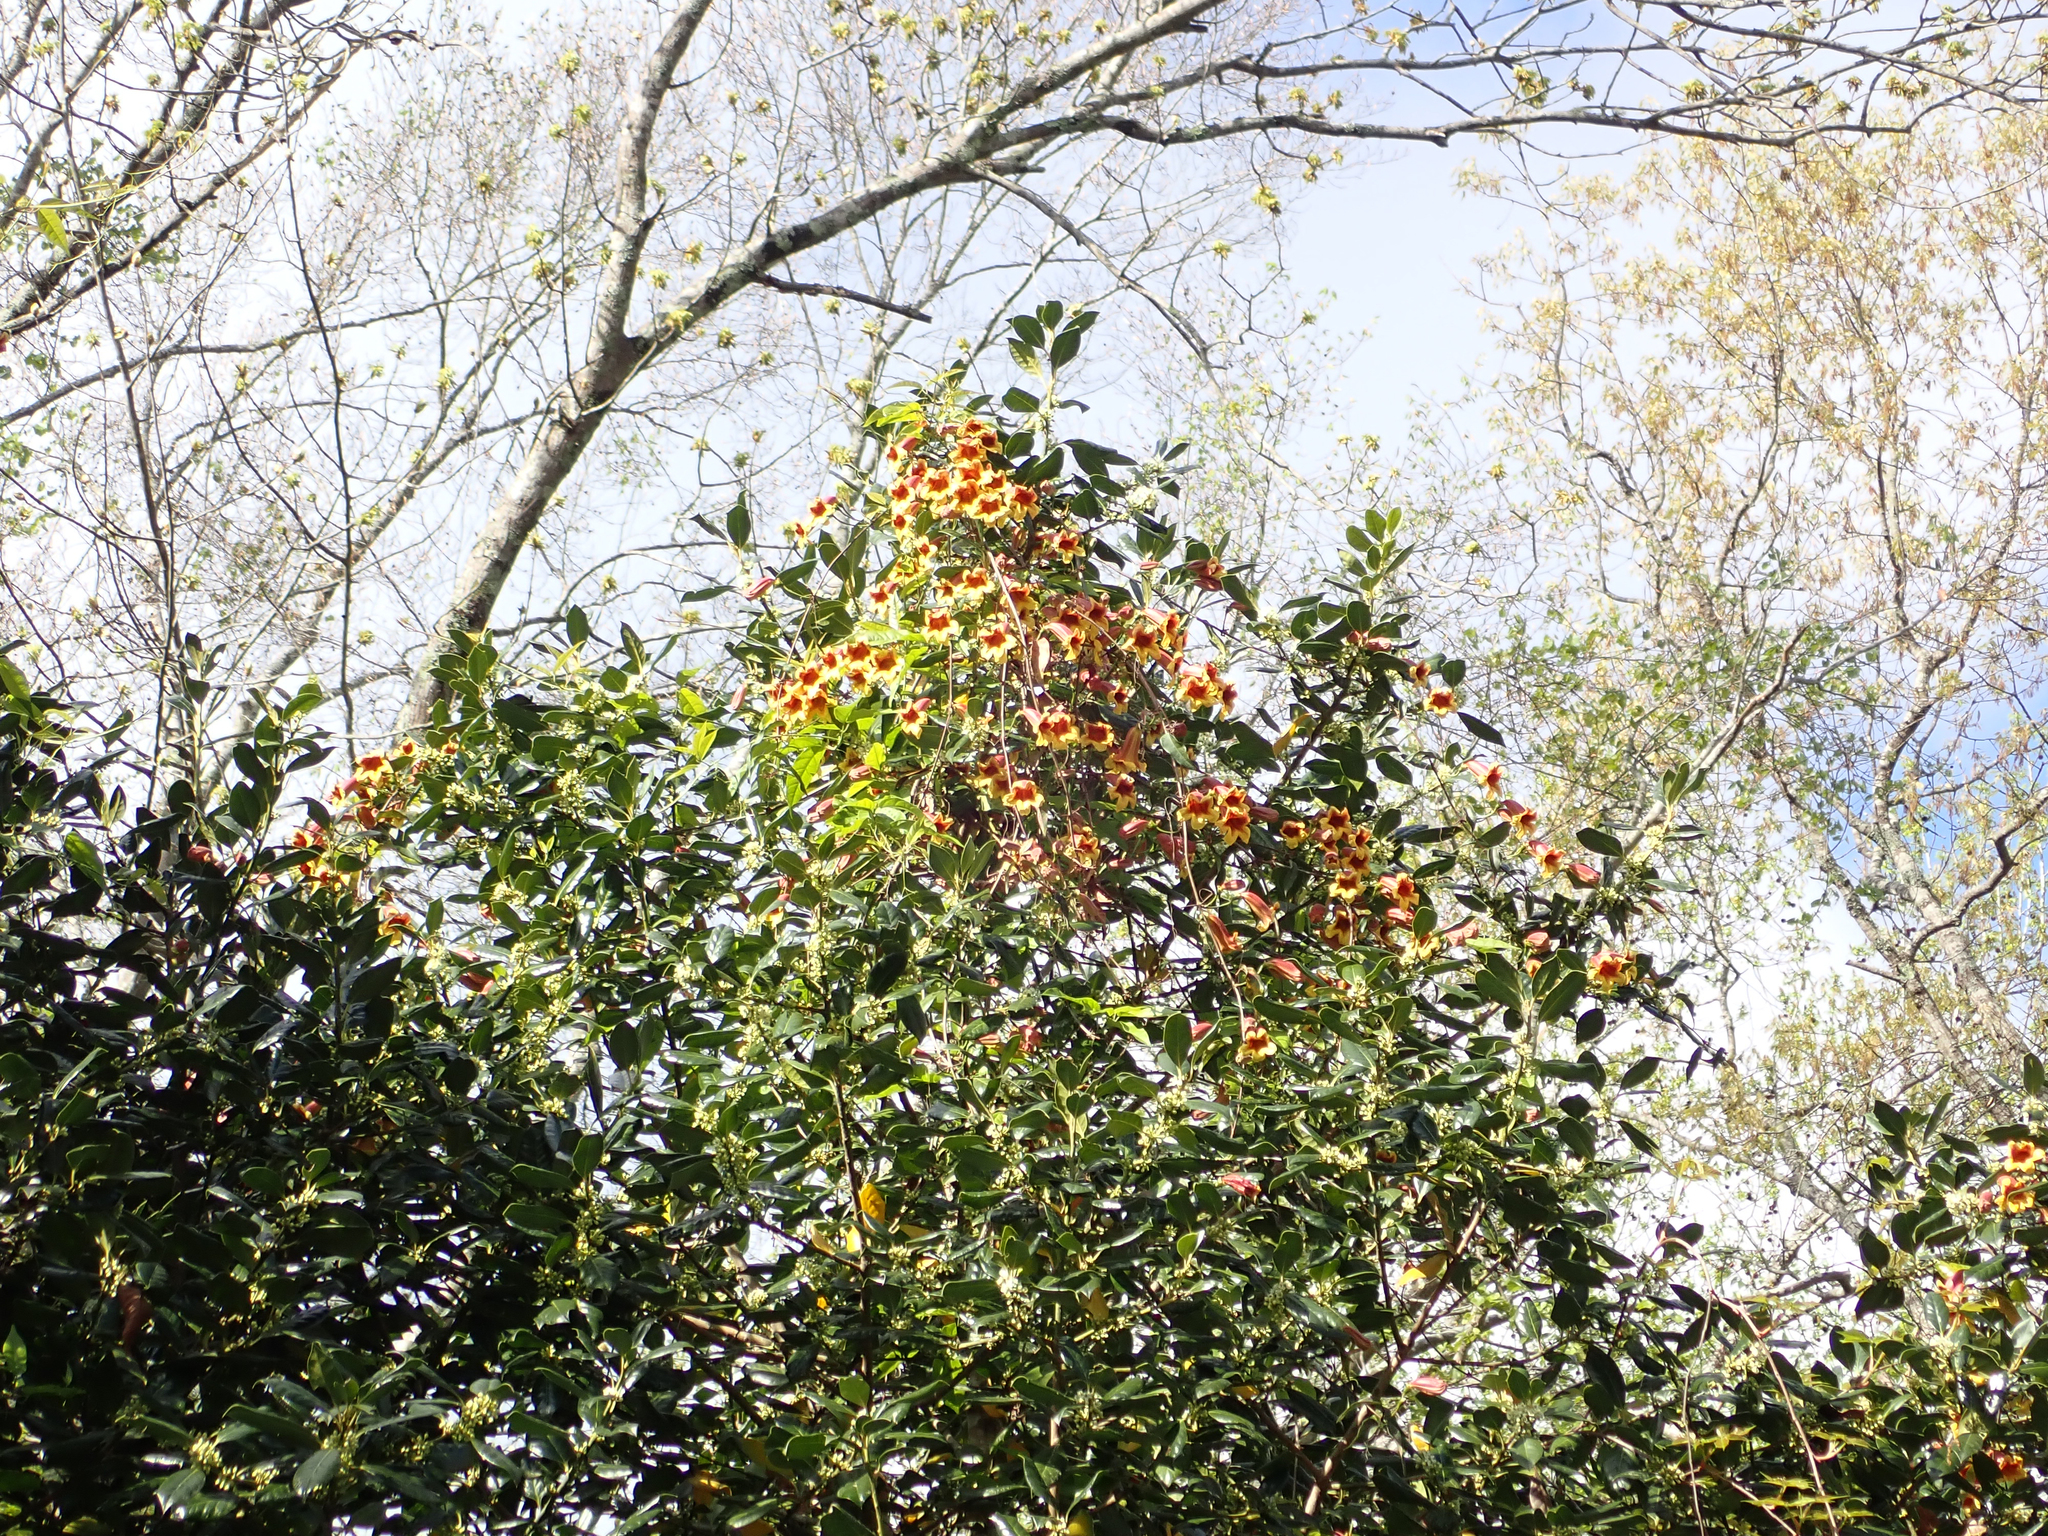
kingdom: Plantae
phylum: Tracheophyta
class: Magnoliopsida
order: Lamiales
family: Bignoniaceae
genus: Bignonia
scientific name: Bignonia capreolata
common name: Crossvine
